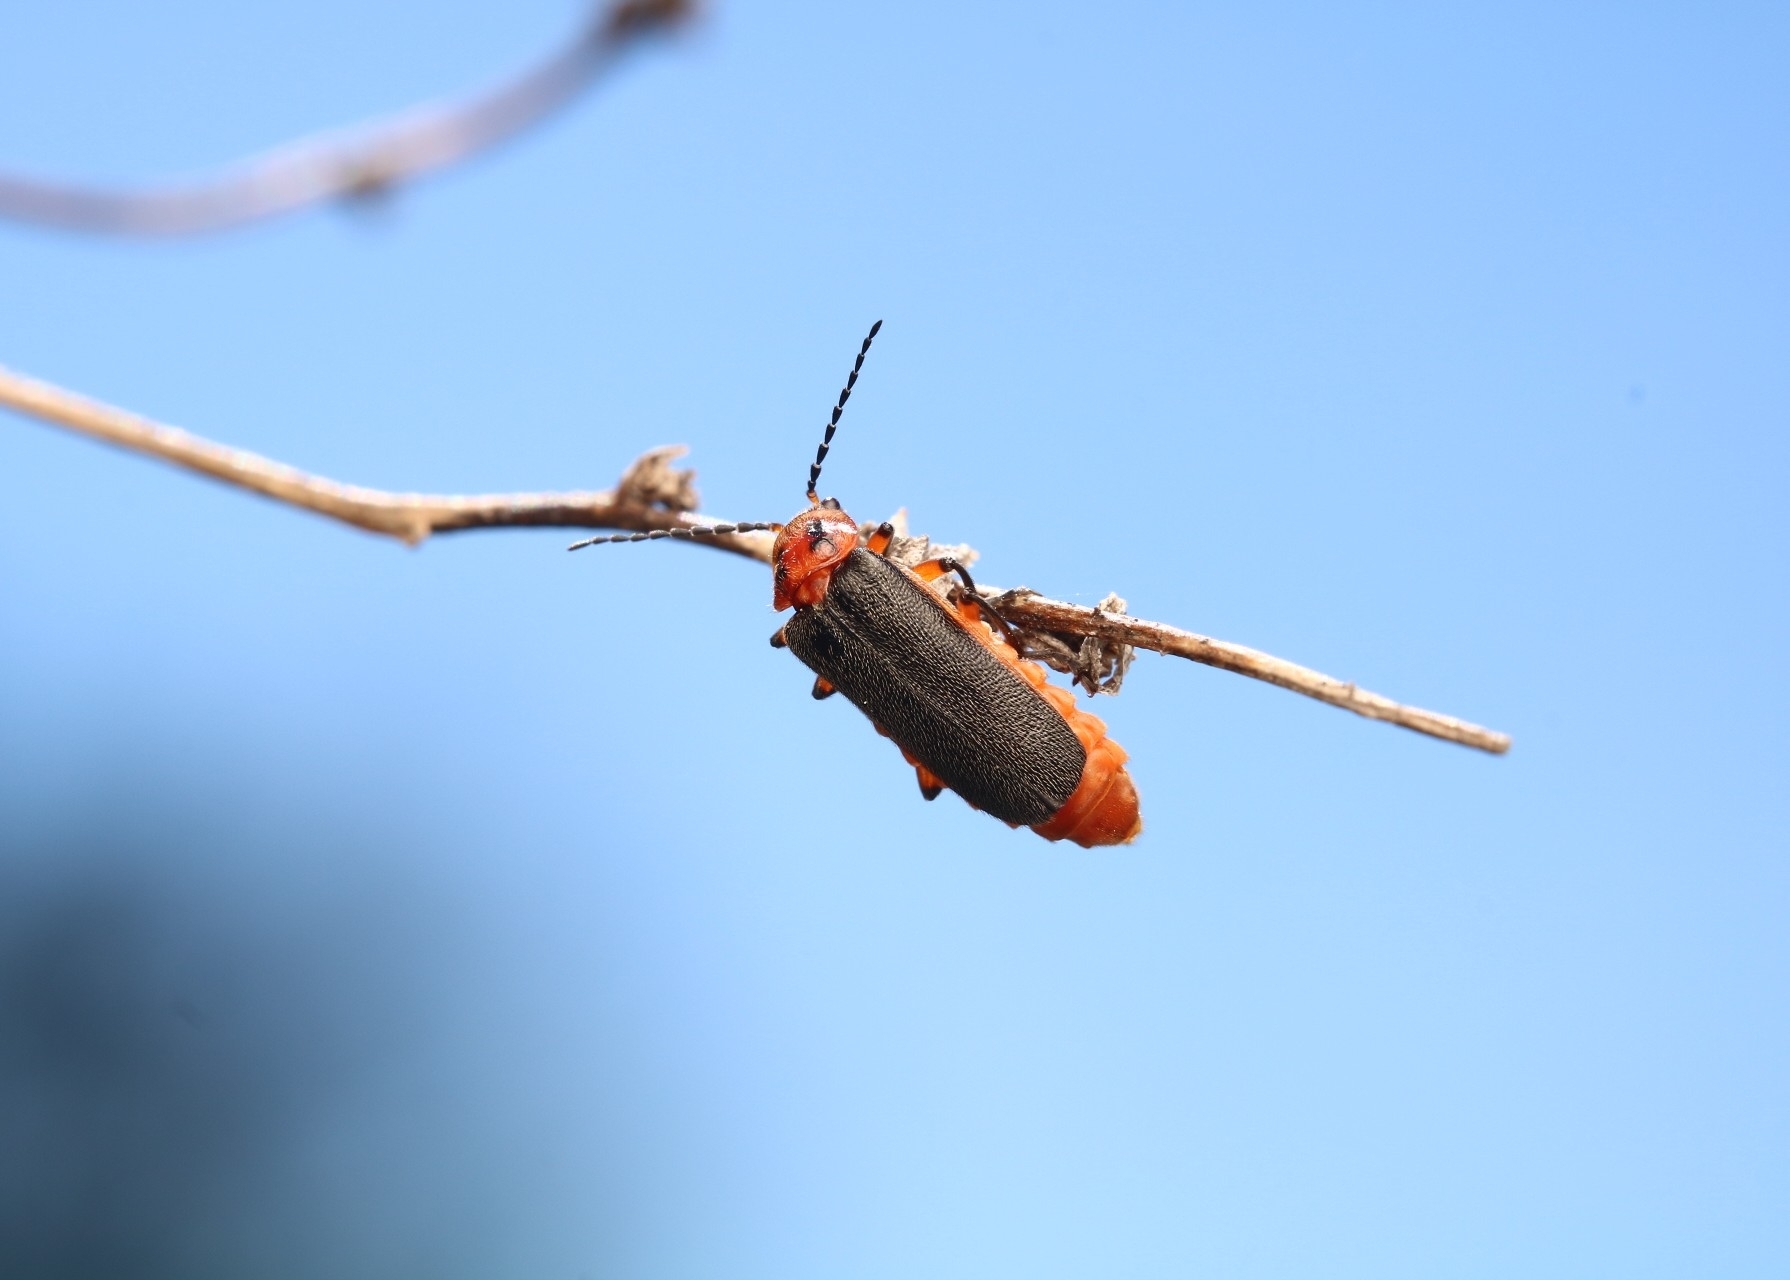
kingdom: Animalia
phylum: Arthropoda
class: Insecta
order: Coleoptera
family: Cantharidae
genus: Atalantycha
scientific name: Atalantycha bilineata
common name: Two-lined leatherwing
